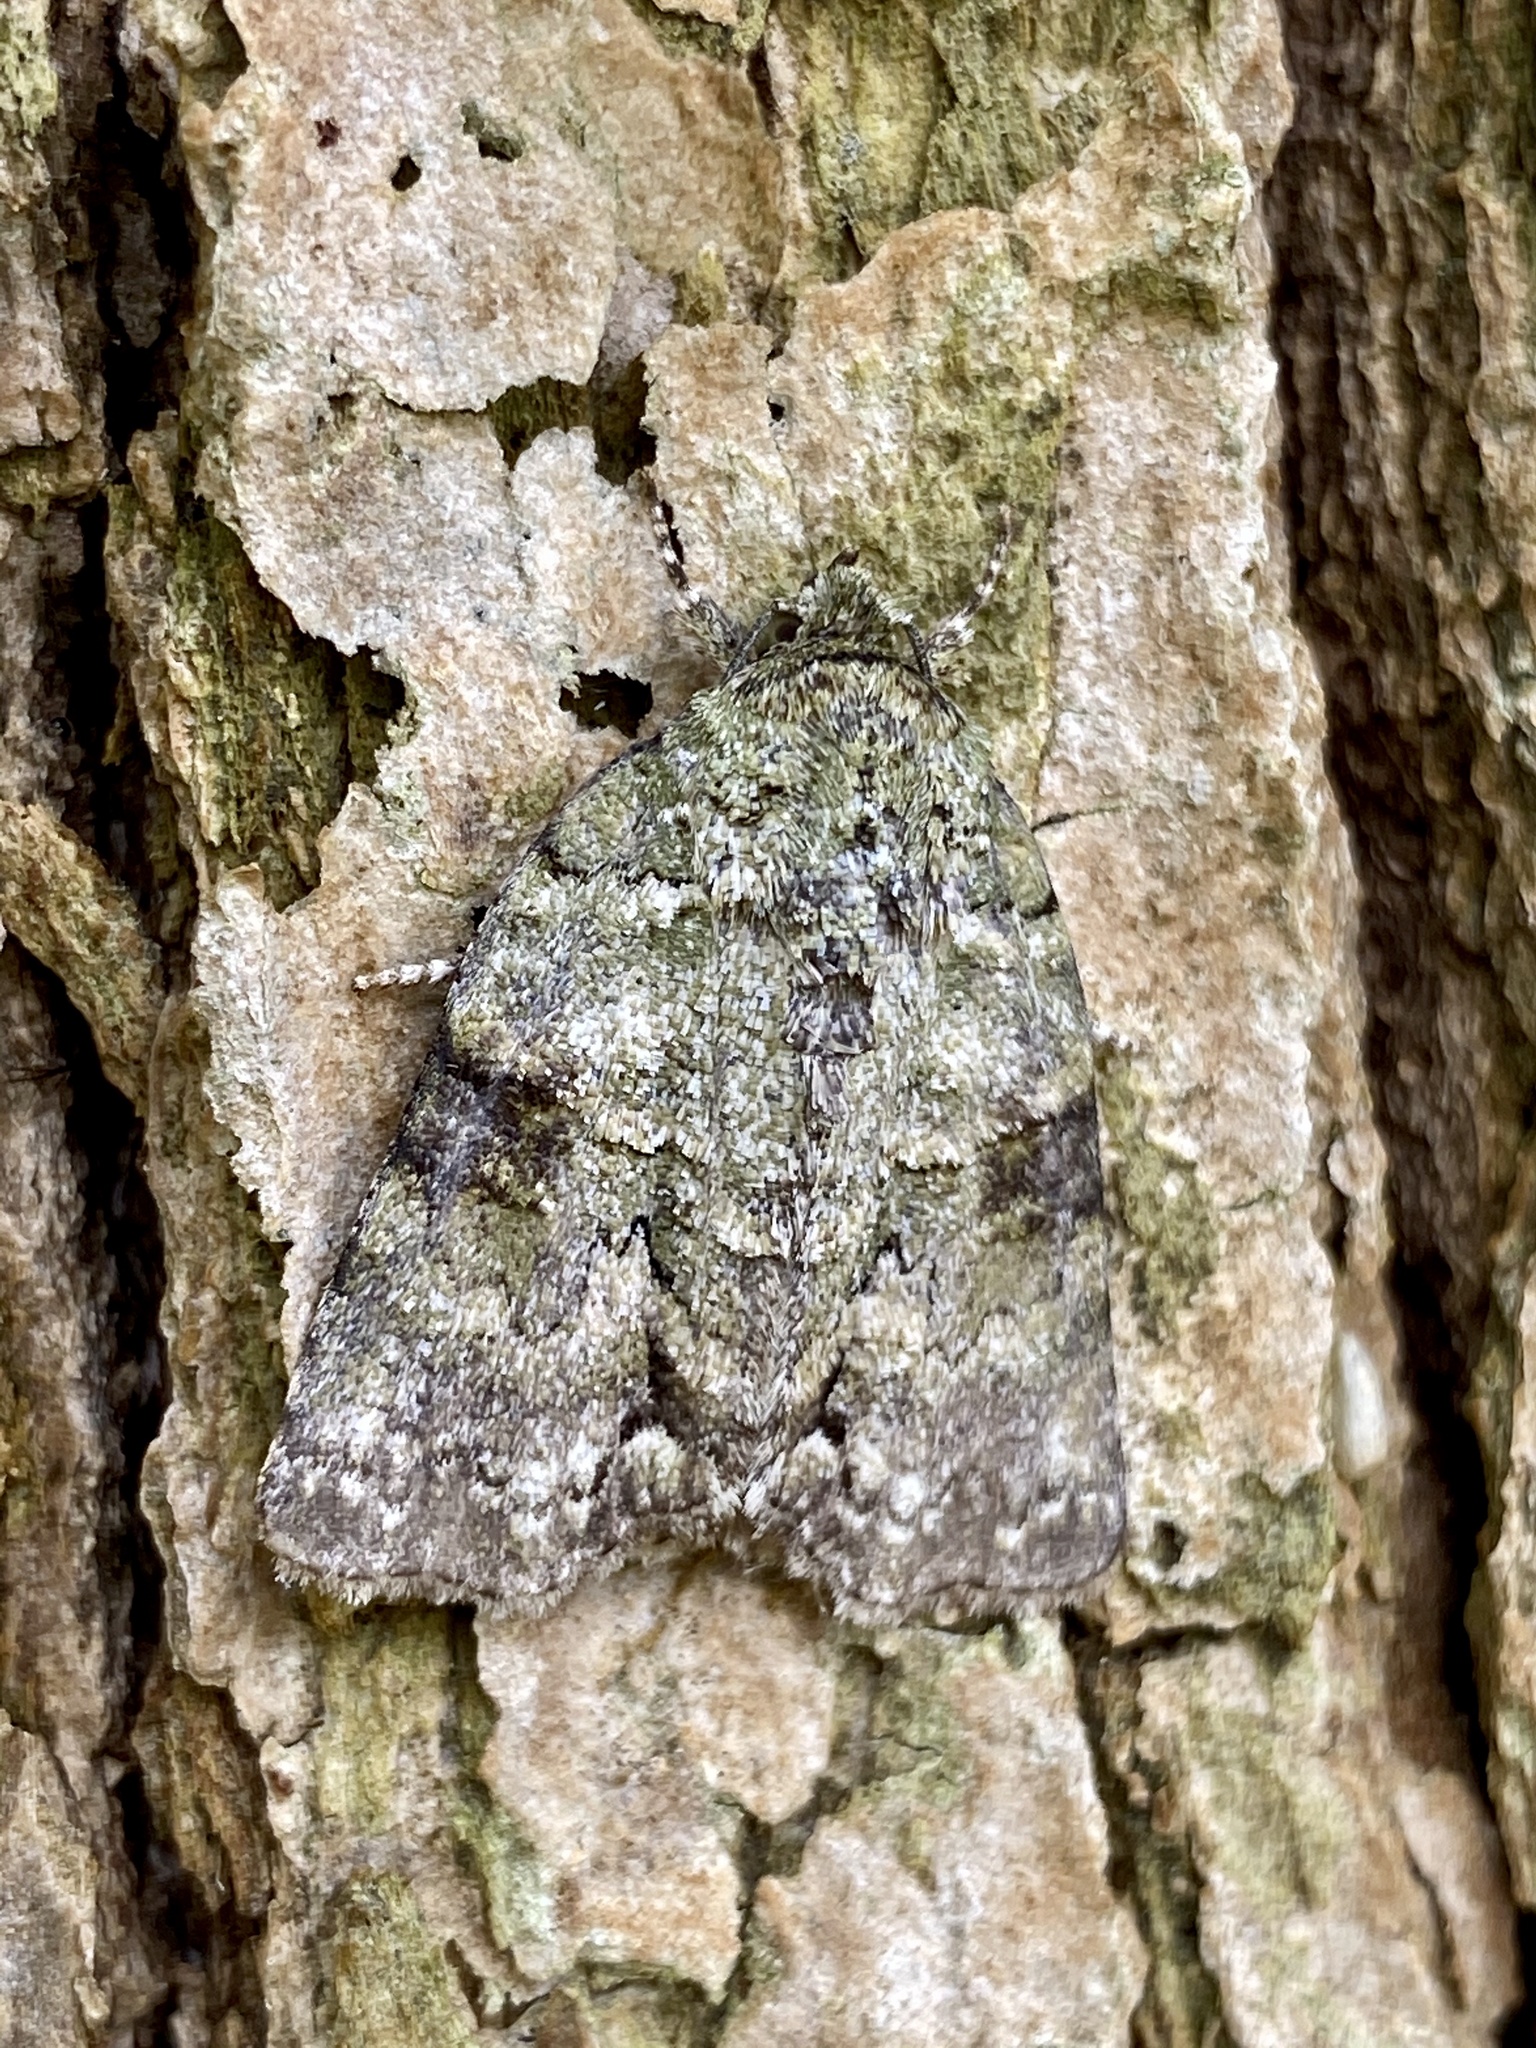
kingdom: Animalia
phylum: Arthropoda
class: Insecta
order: Lepidoptera
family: Nolidae
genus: Blenina
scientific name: Blenina senex
